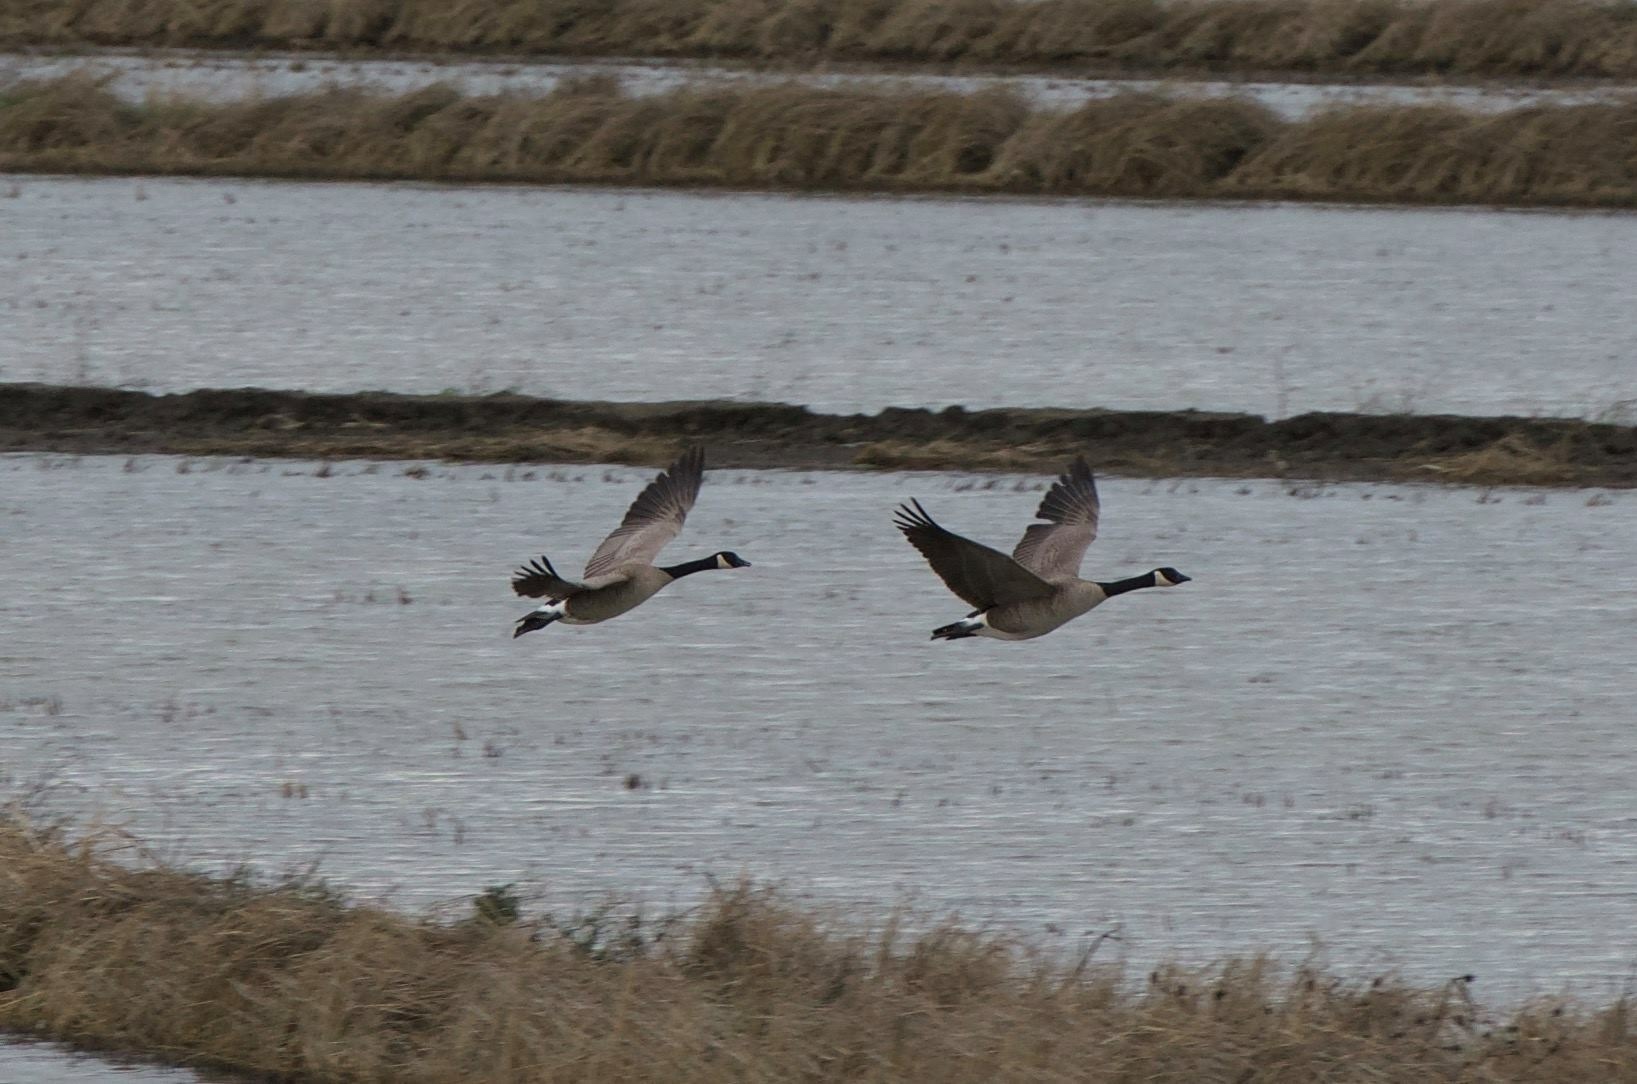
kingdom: Animalia
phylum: Chordata
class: Aves
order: Anseriformes
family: Anatidae
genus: Branta
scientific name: Branta canadensis
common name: Canada goose
